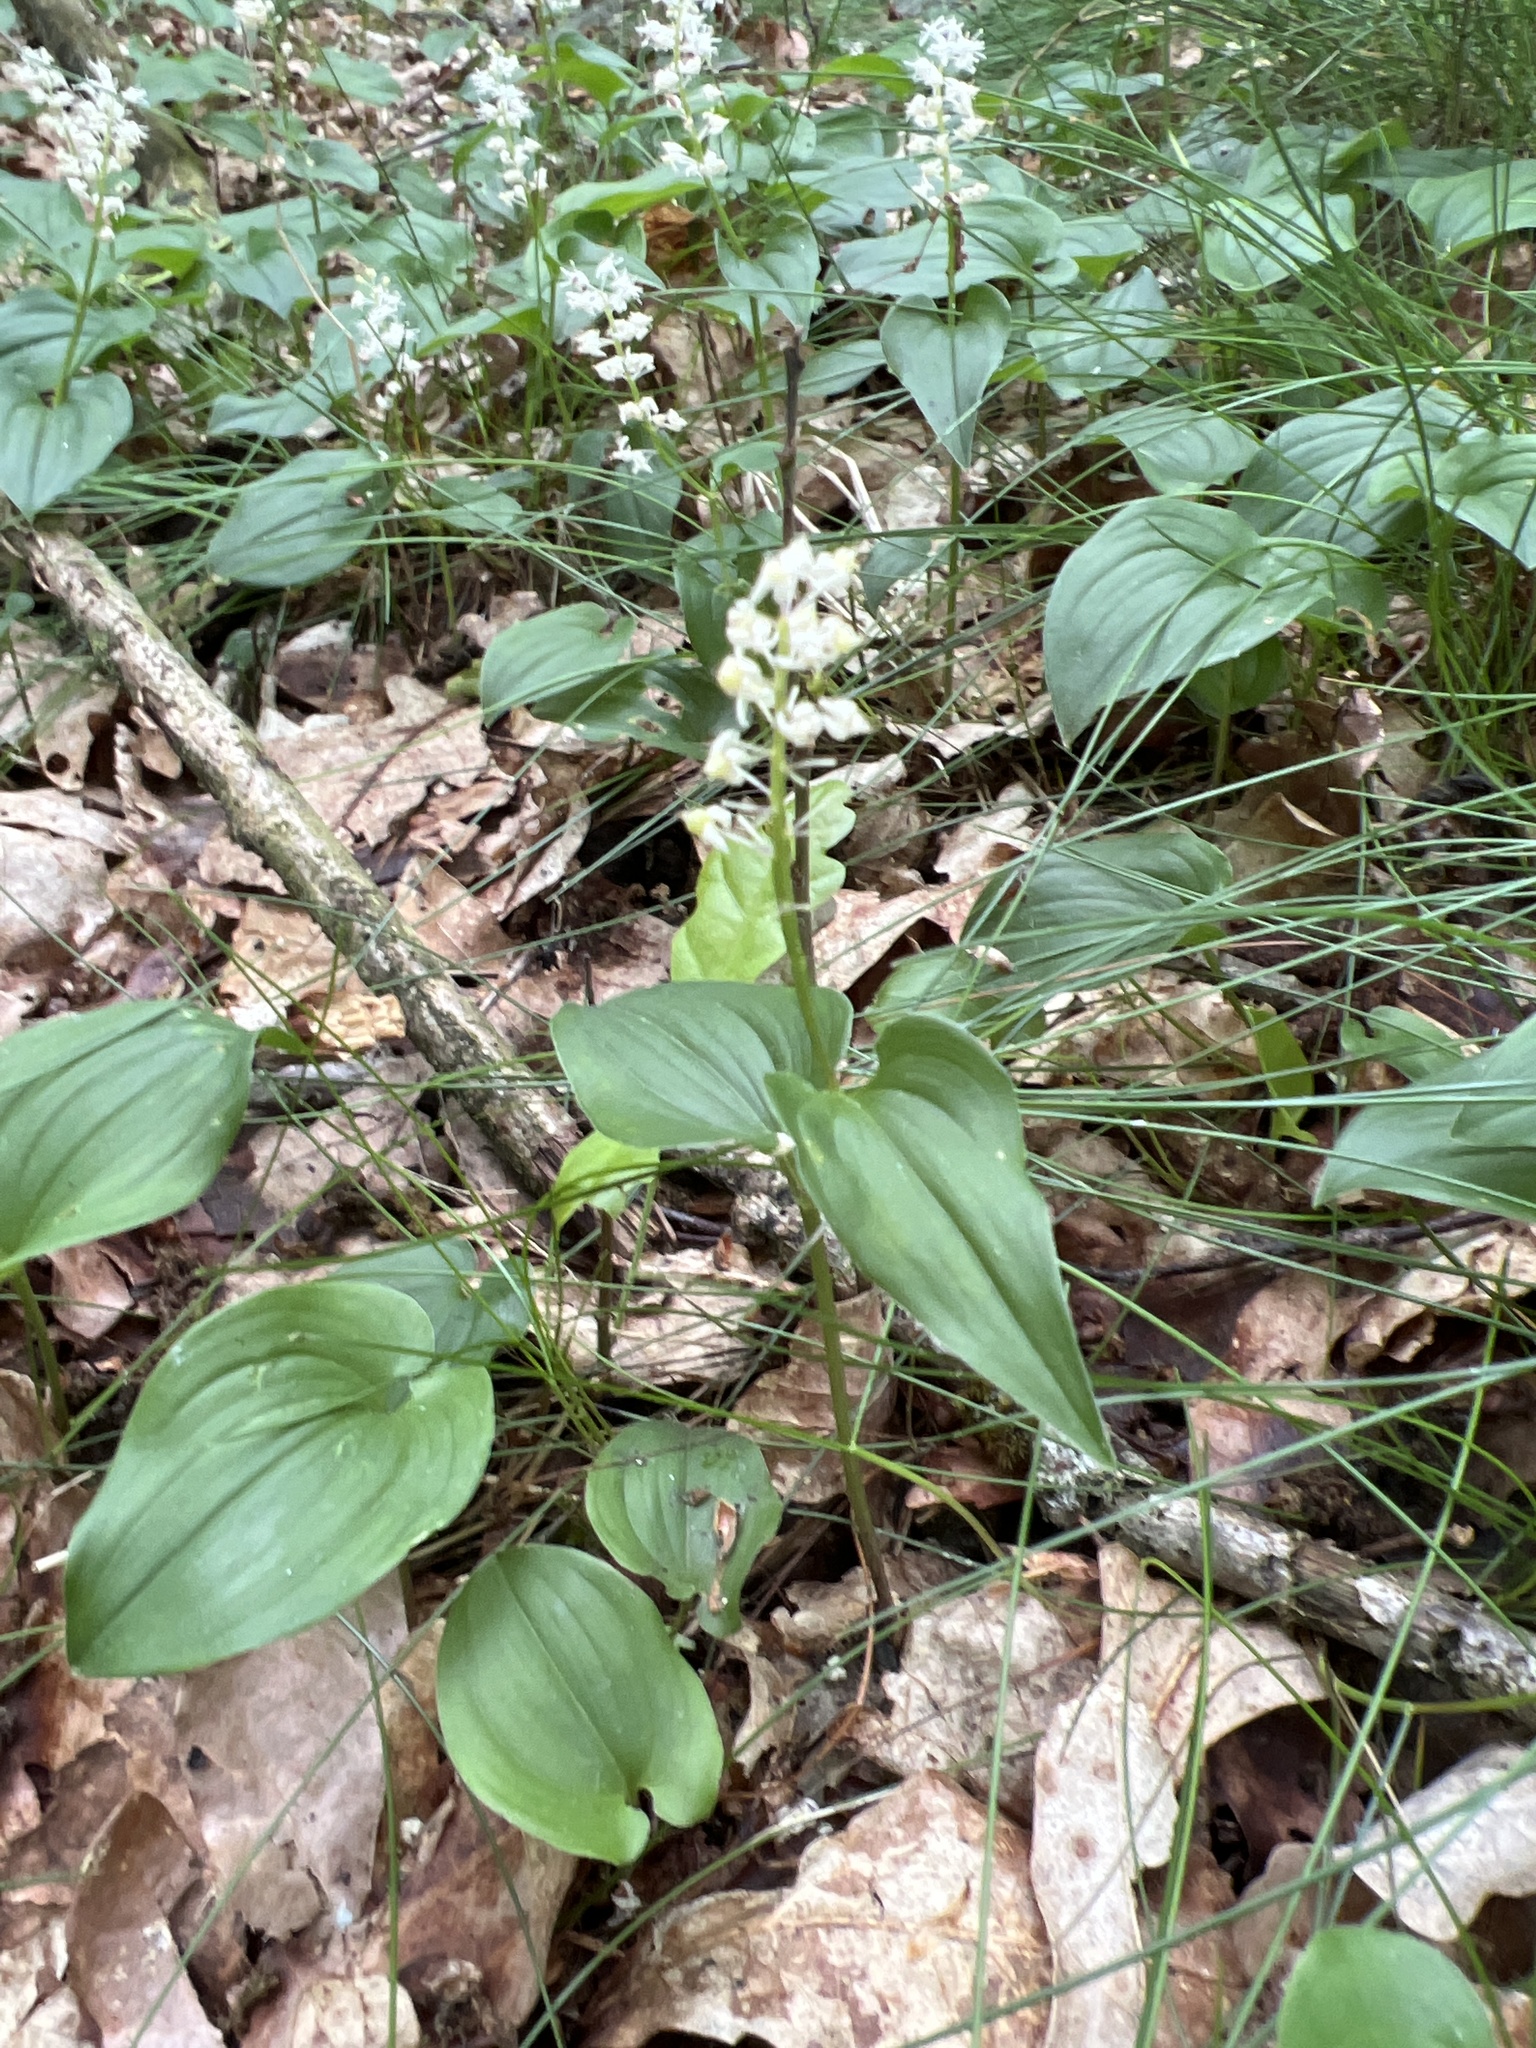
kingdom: Plantae
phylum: Tracheophyta
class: Liliopsida
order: Asparagales
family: Asparagaceae
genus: Maianthemum
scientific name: Maianthemum bifolium
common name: May lily
